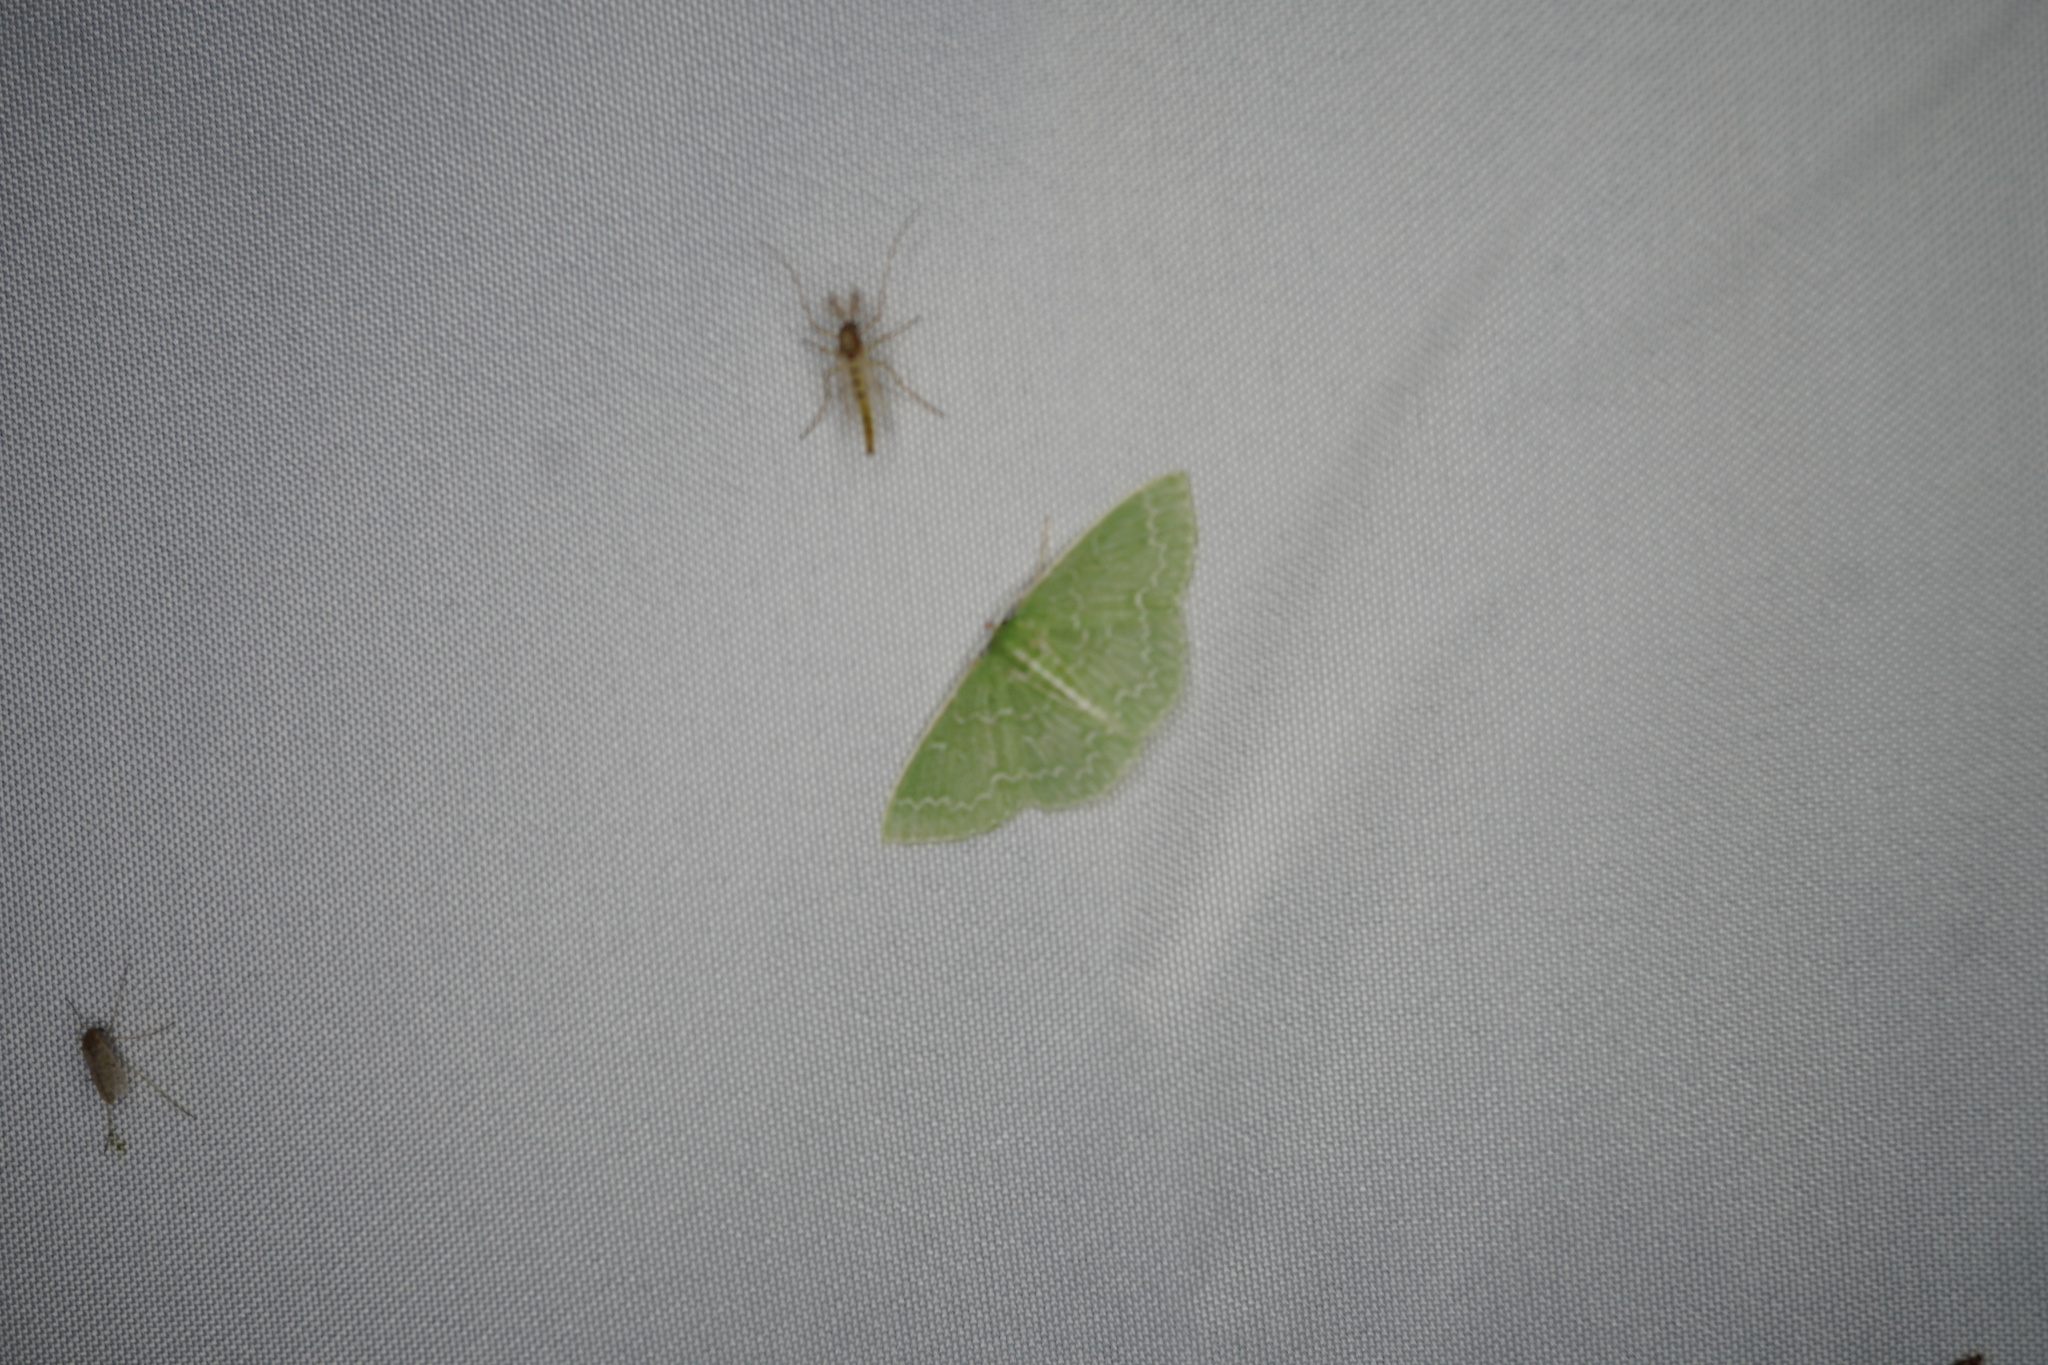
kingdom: Animalia
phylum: Arthropoda
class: Insecta
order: Lepidoptera
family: Geometridae
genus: Synchlora
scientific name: Synchlora frondaria
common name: Southern emerald
